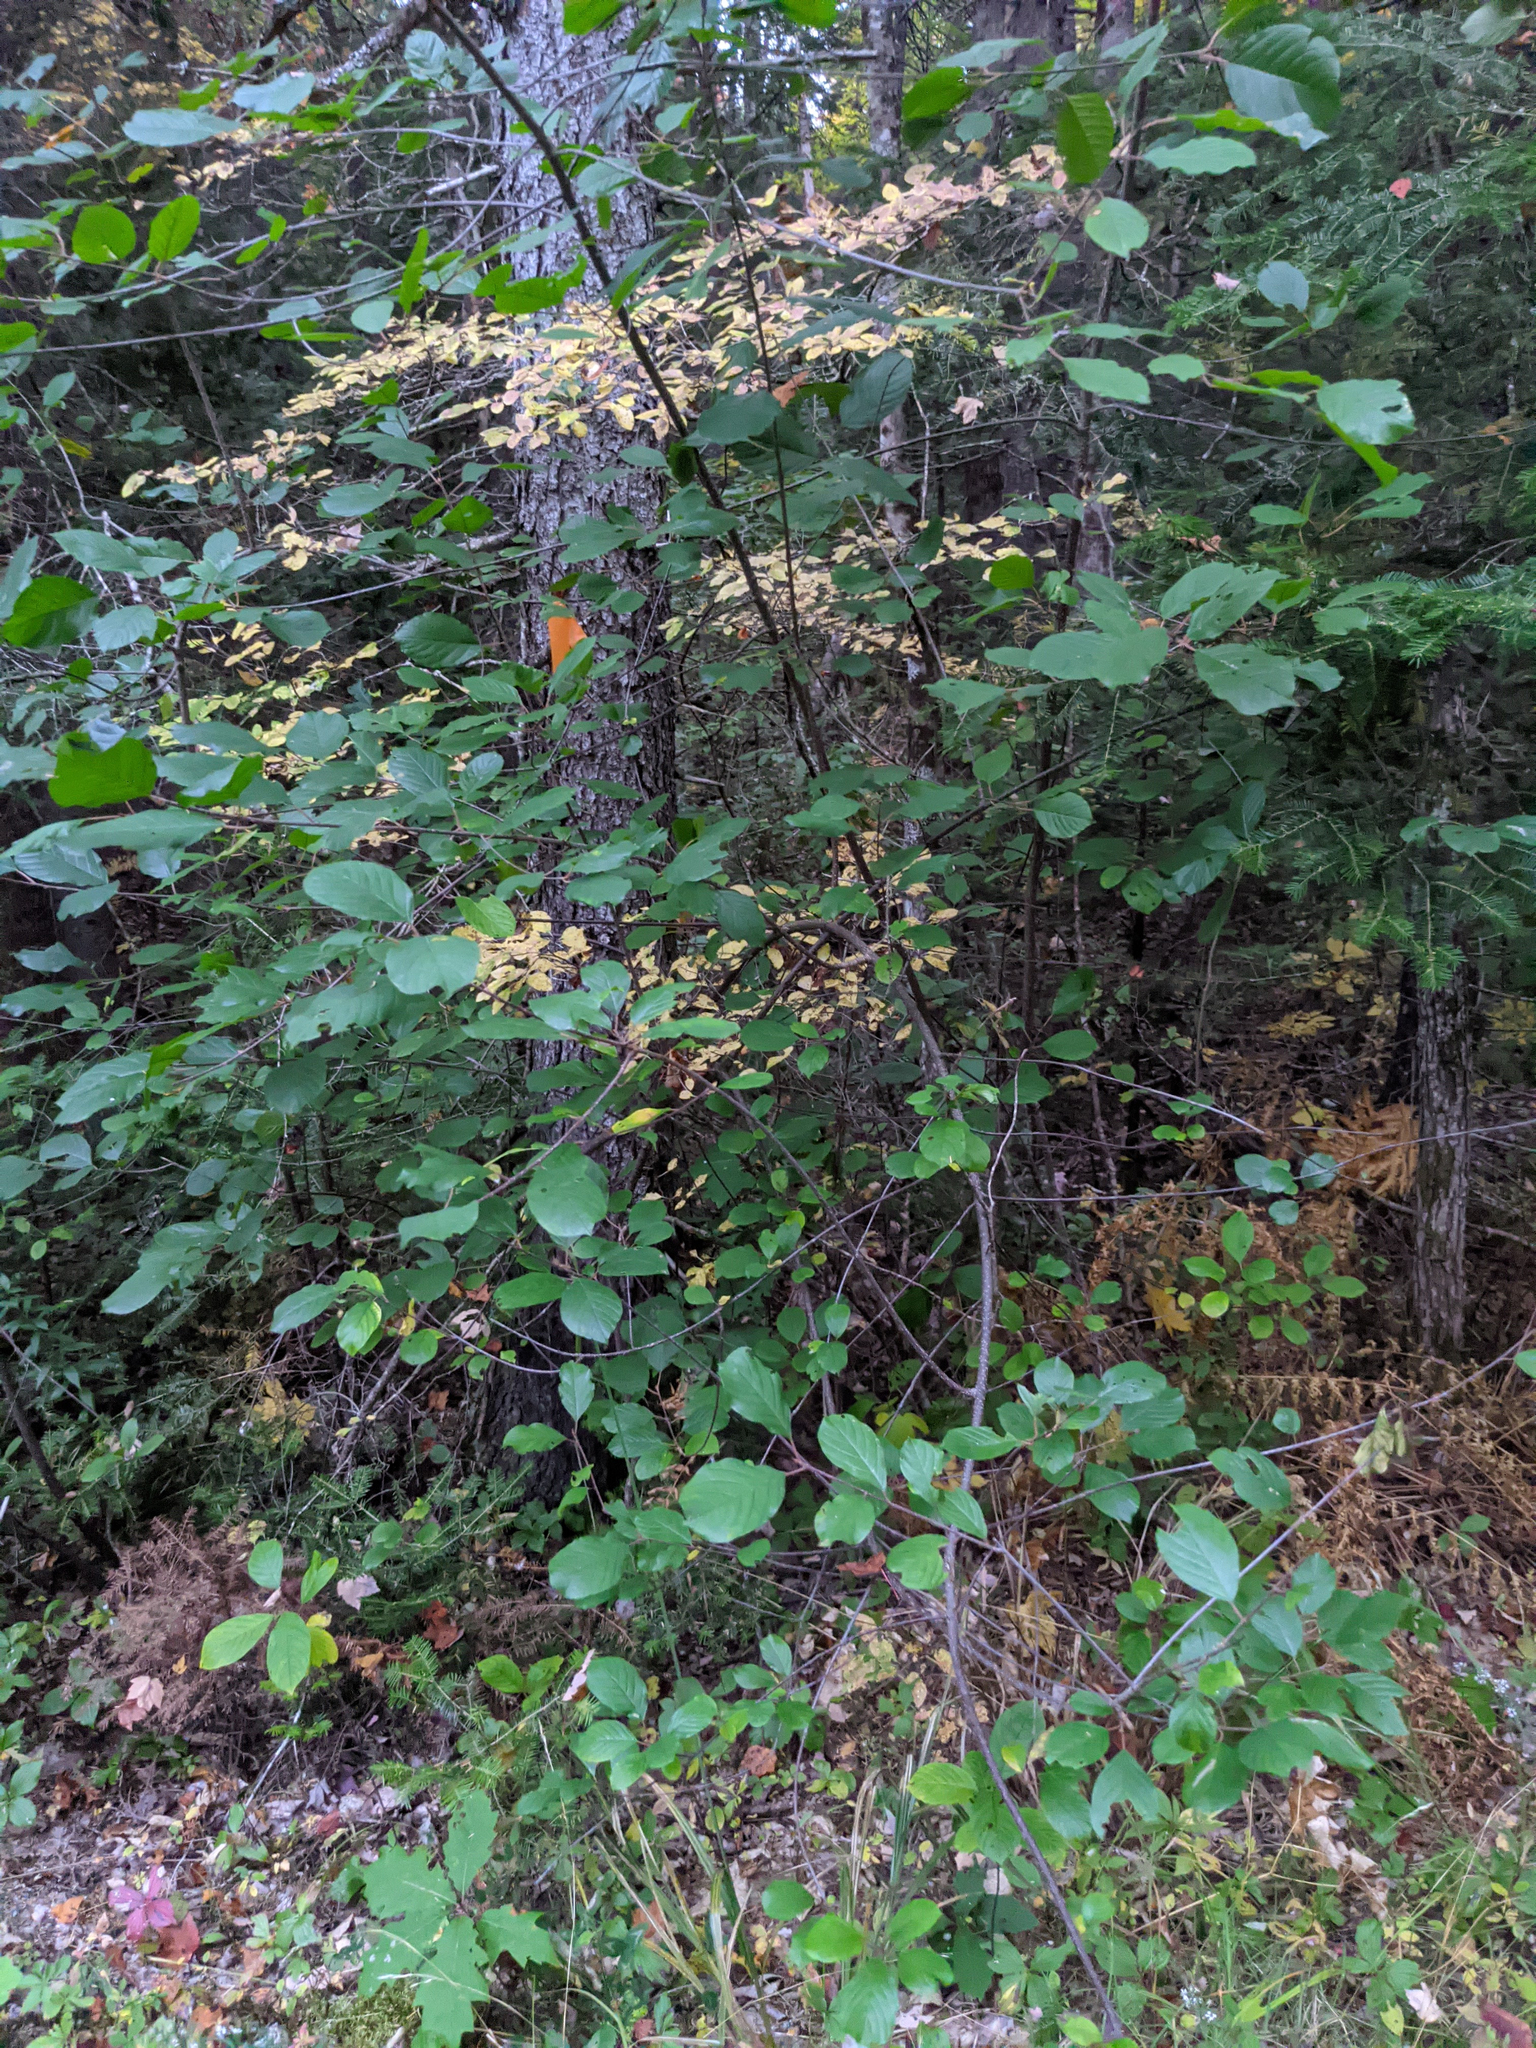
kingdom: Plantae
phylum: Tracheophyta
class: Magnoliopsida
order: Rosales
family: Rhamnaceae
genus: Frangula
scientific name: Frangula alnus
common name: Alder buckthorn
